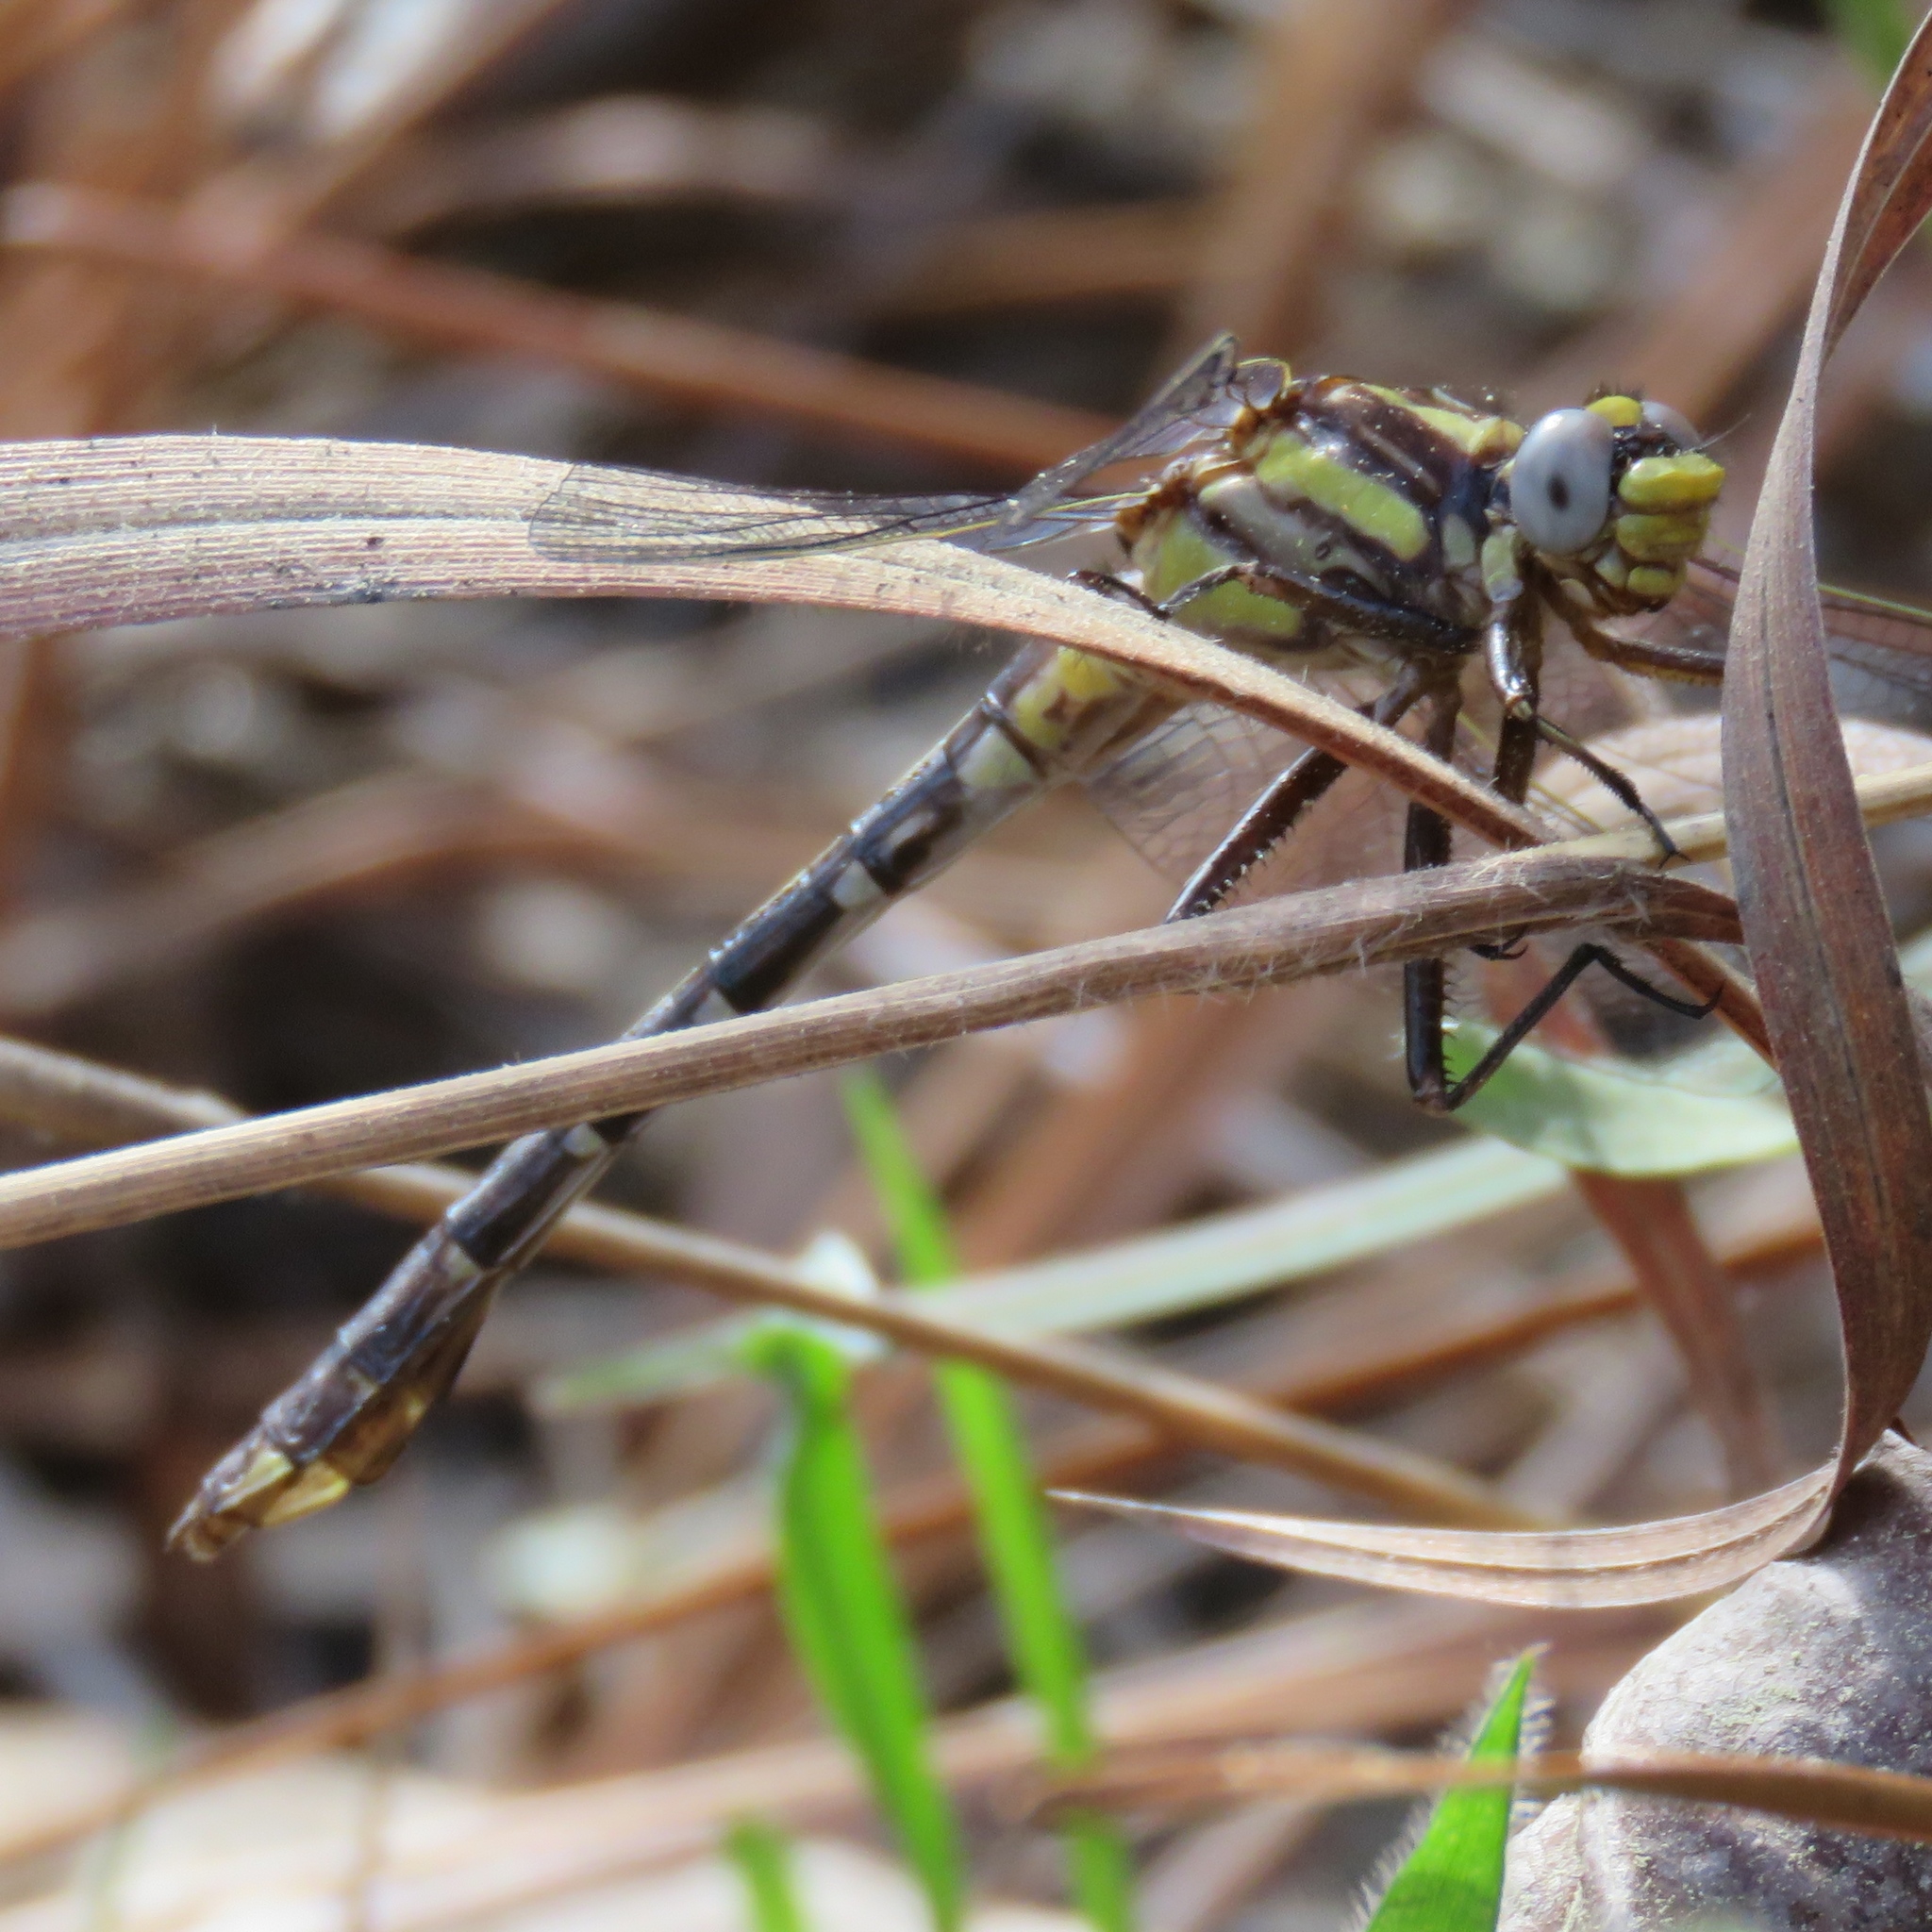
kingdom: Animalia
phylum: Arthropoda
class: Insecta
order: Odonata
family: Gomphidae
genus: Gomphurus
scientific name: Gomphurus hybridus
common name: Cocoa clubtail
